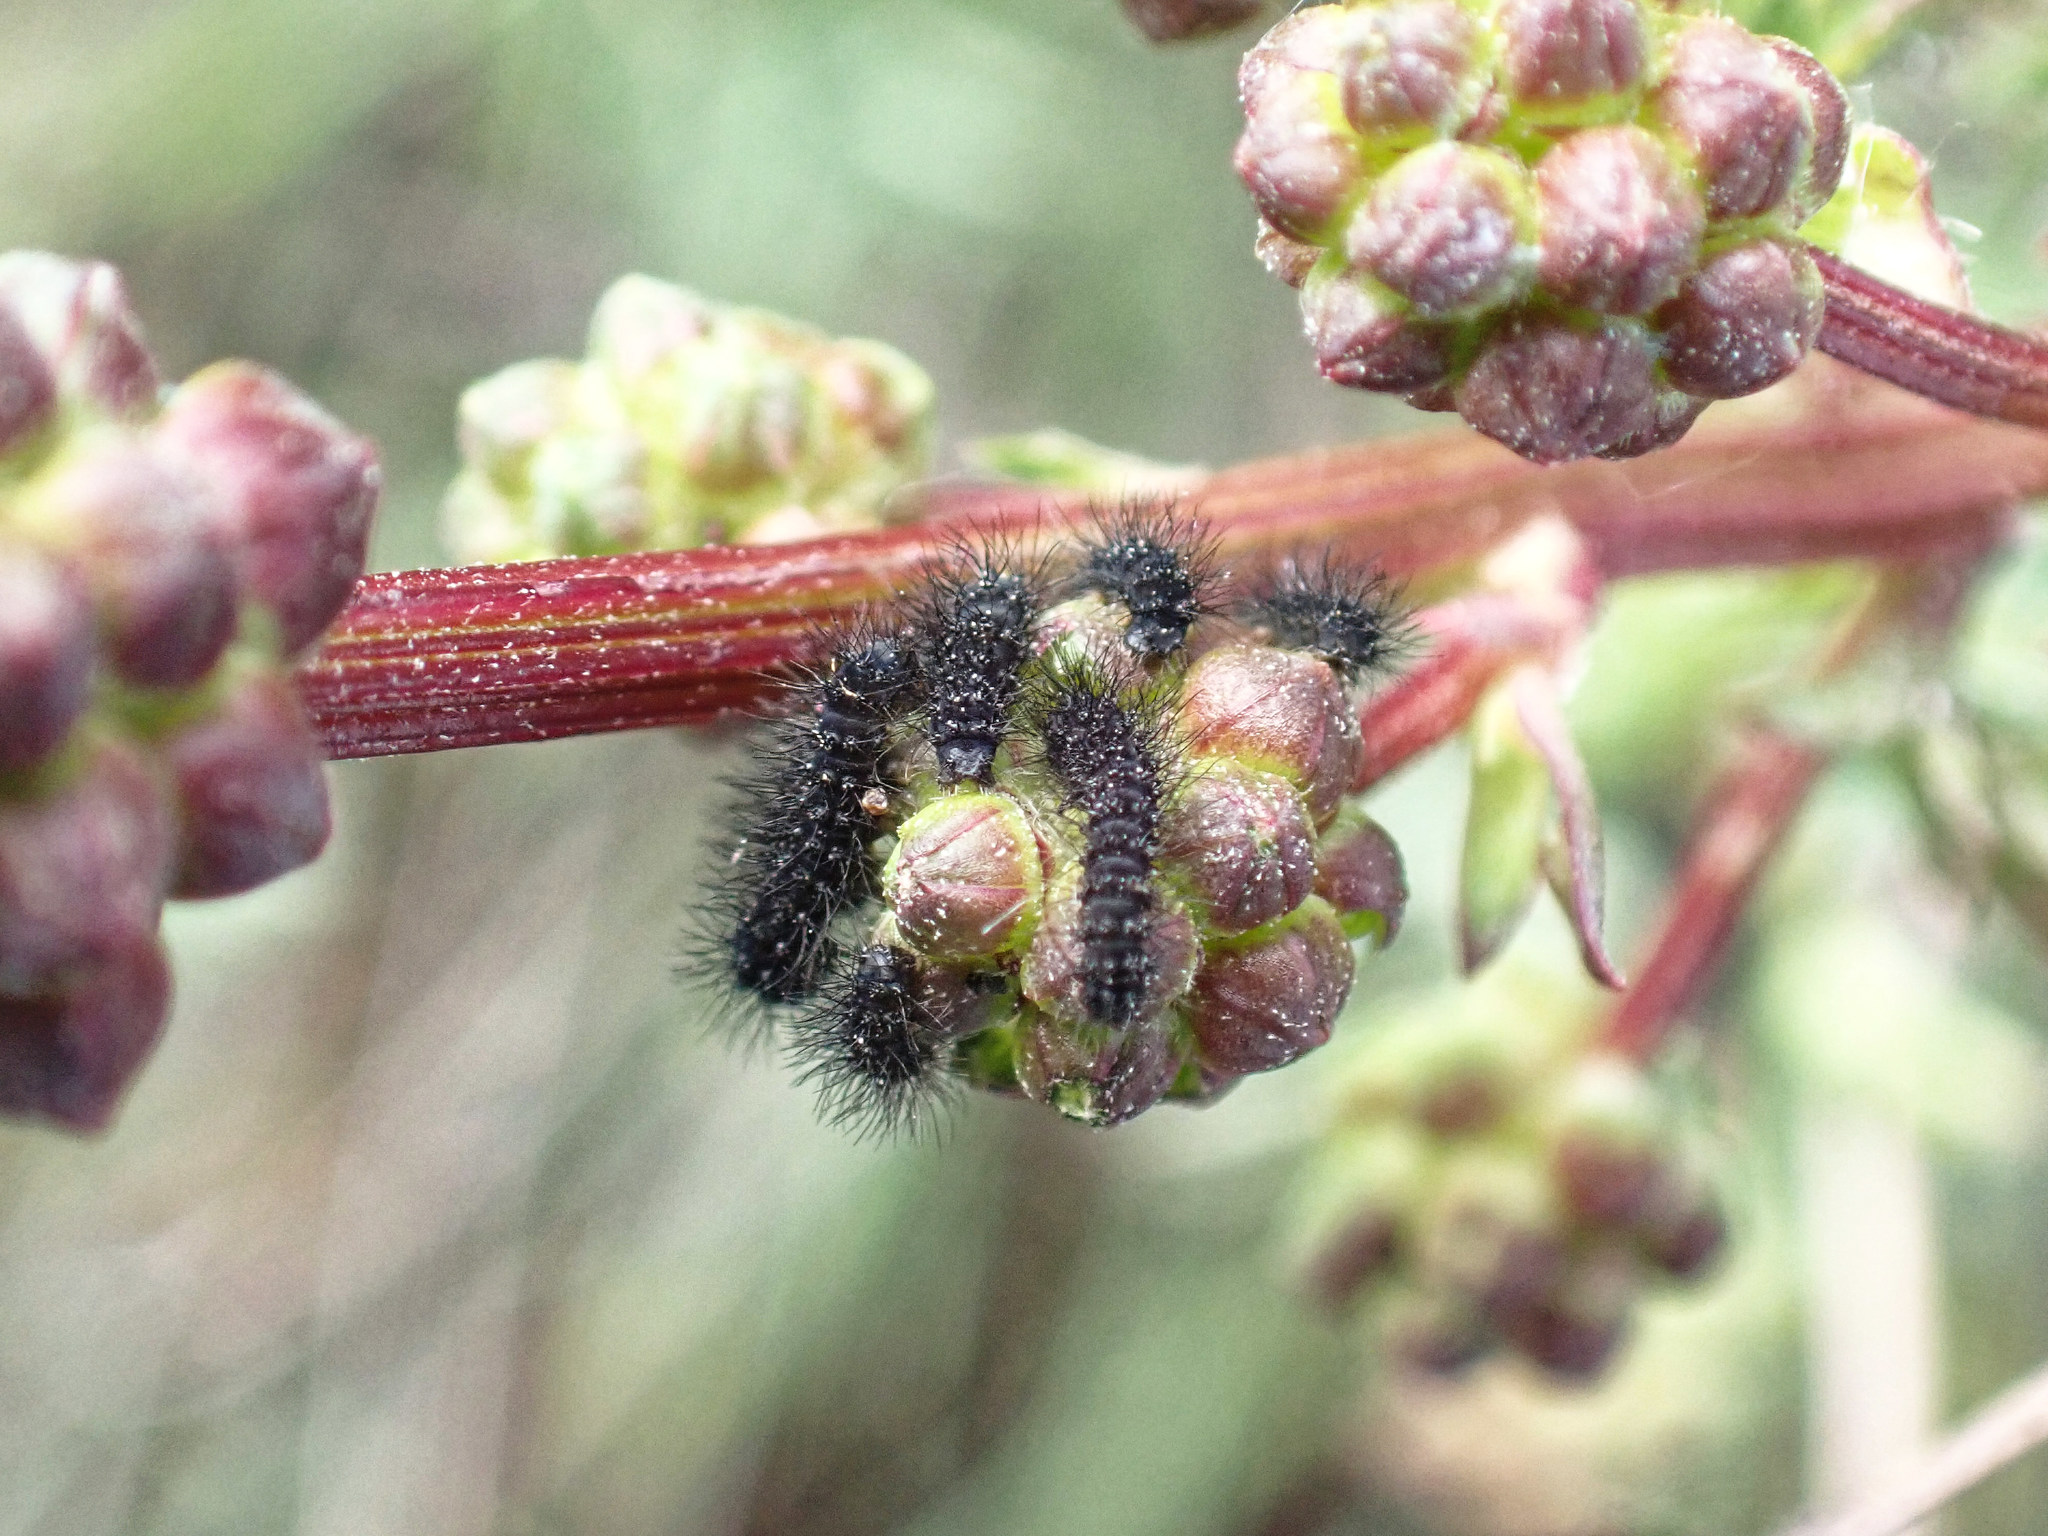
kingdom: Animalia
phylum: Arthropoda
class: Insecta
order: Lepidoptera
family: Saturniidae
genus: Saturnia
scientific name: Saturnia pavonia
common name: Emperor moth
